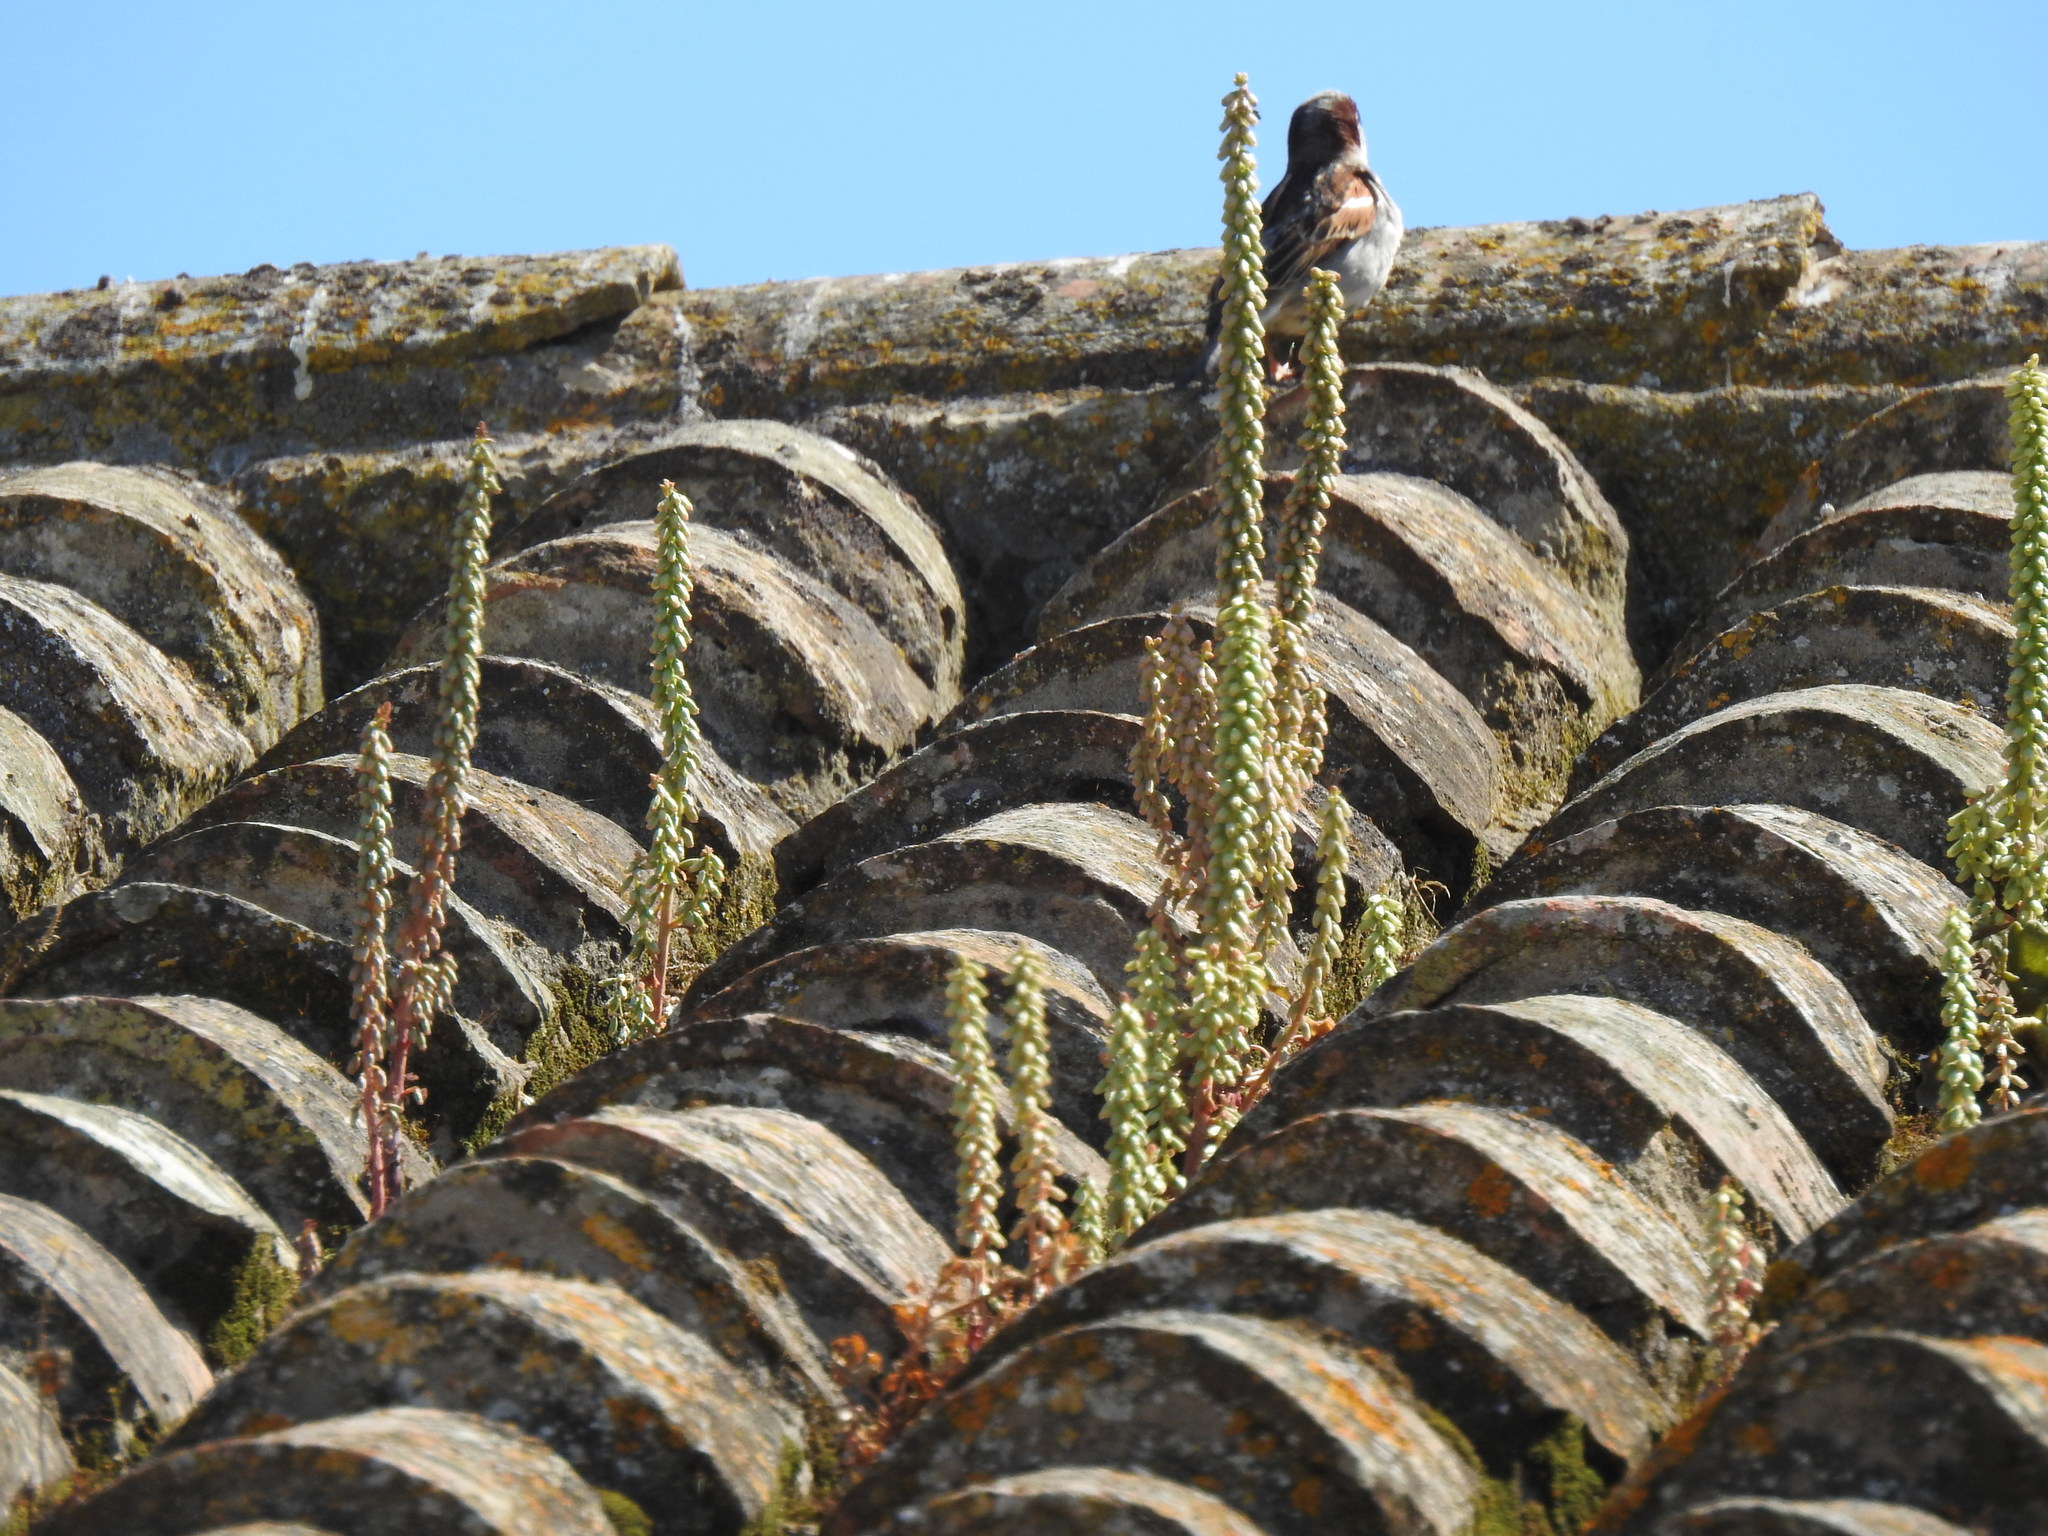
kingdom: Plantae
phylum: Tracheophyta
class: Magnoliopsida
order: Saxifragales
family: Crassulaceae
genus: Umbilicus
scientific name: Umbilicus rupestris
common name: Navelwort
